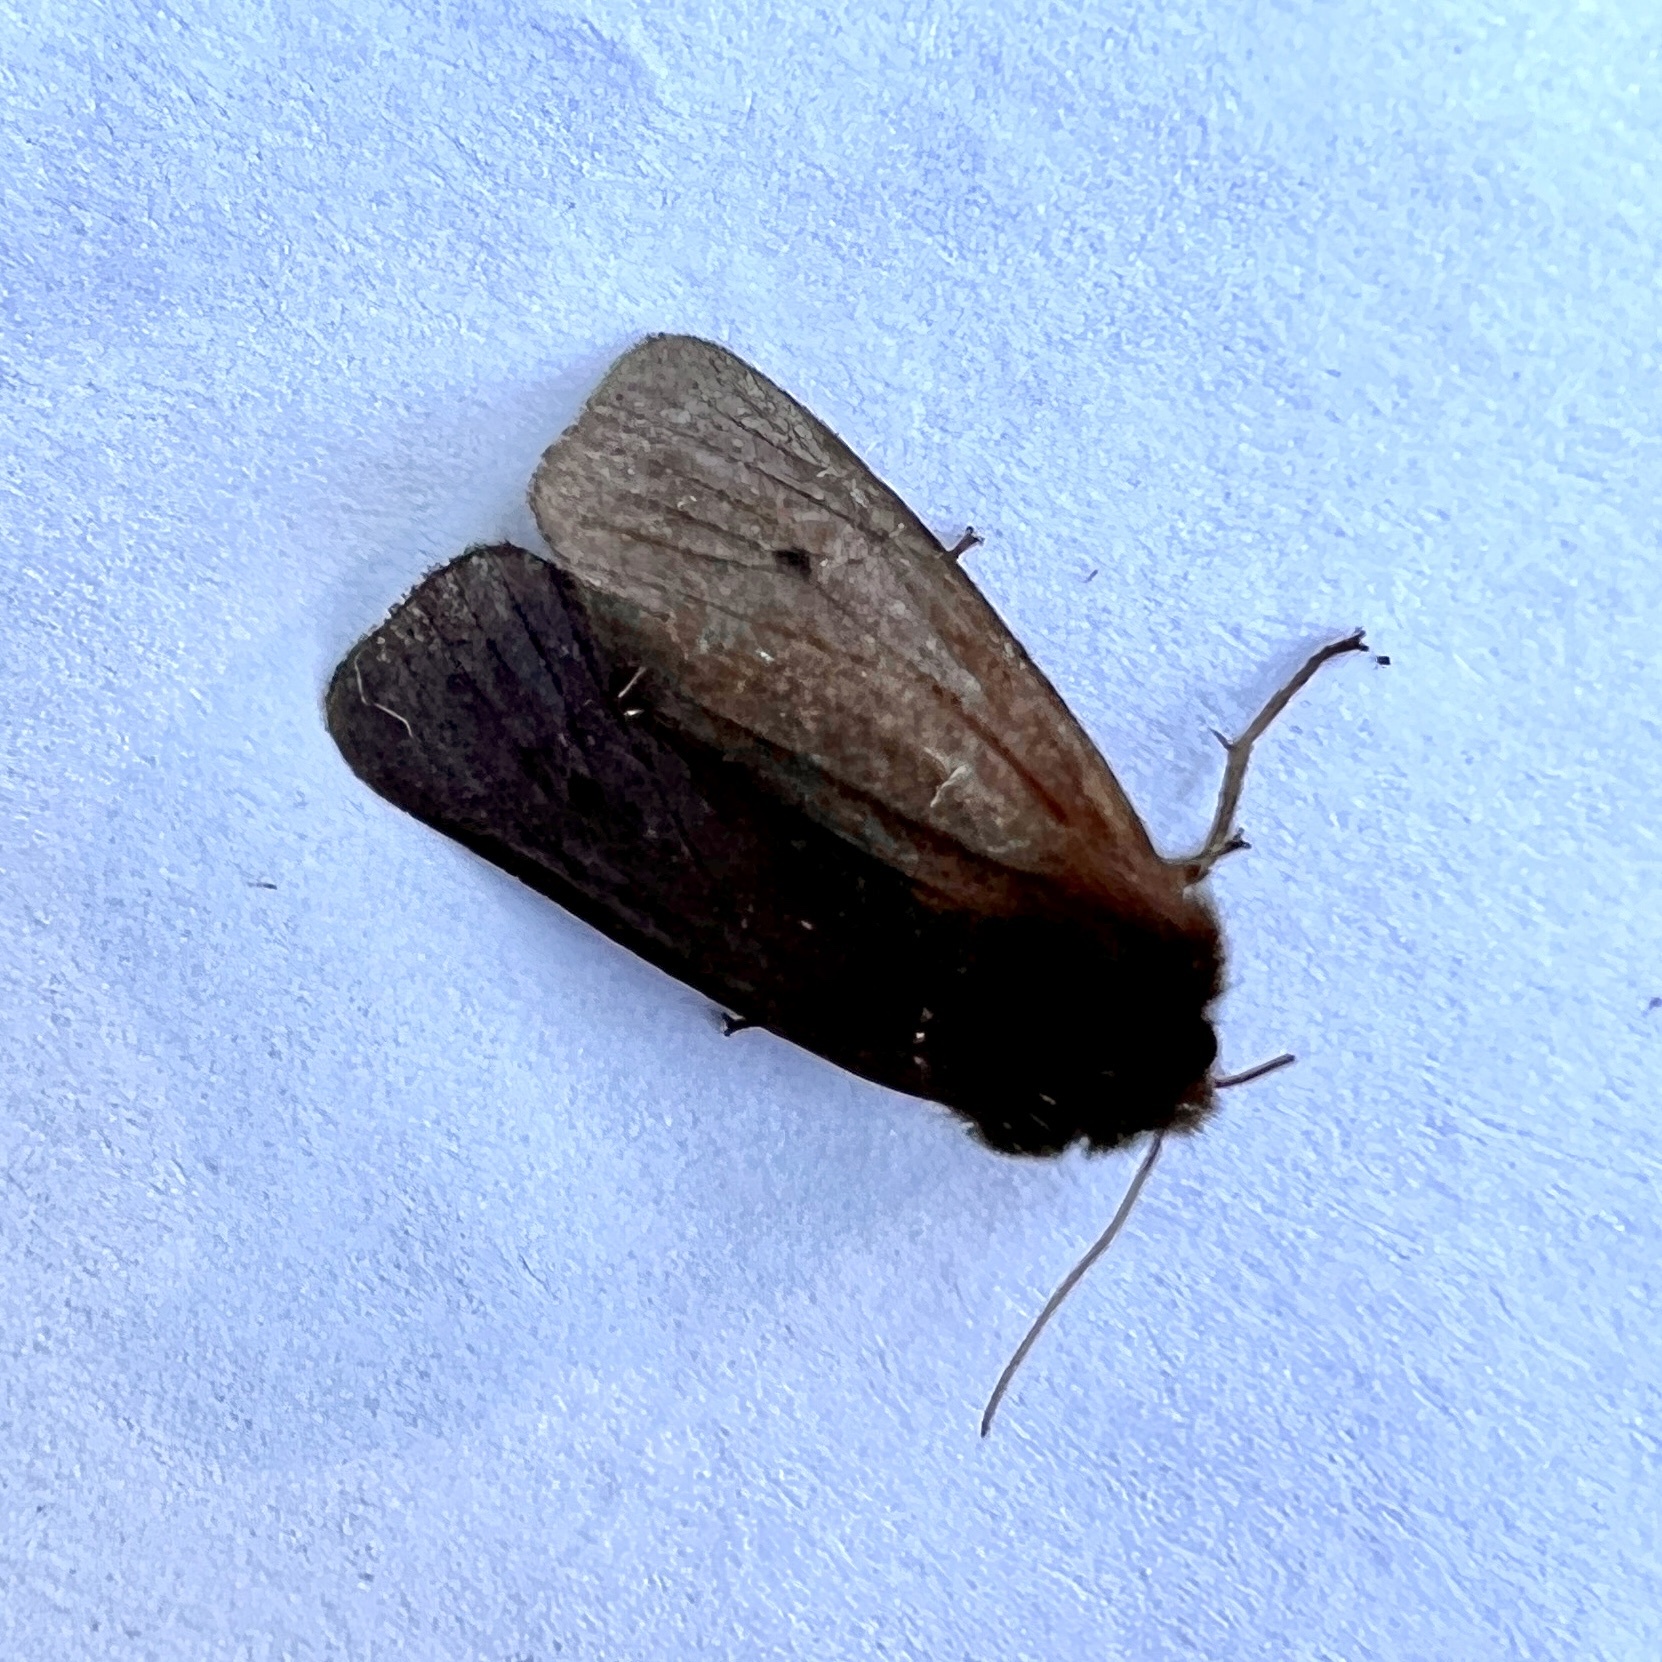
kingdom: Animalia
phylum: Arthropoda
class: Insecta
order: Lepidoptera
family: Erebidae
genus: Phragmatobia
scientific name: Phragmatobia fuliginosa
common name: Ruby tiger
